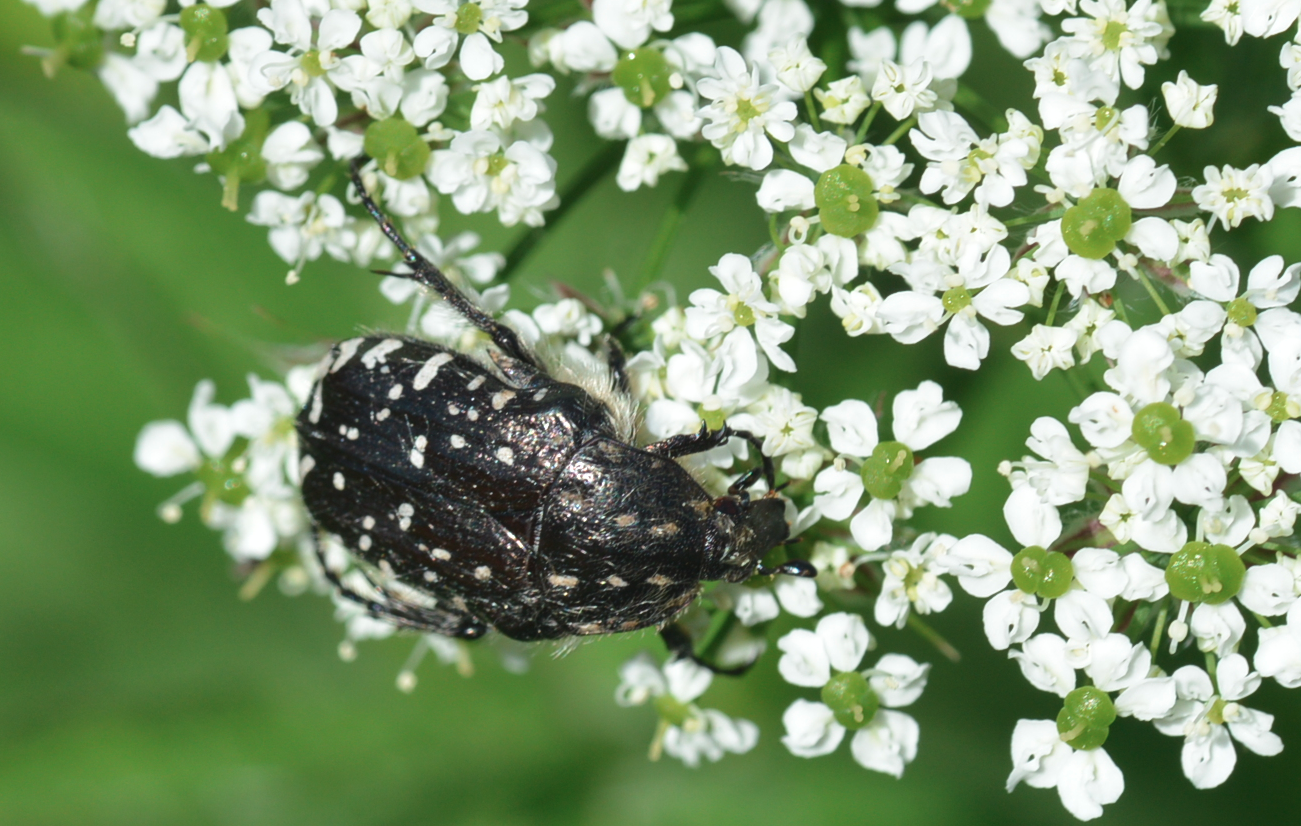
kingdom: Animalia
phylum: Arthropoda
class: Insecta
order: Coleoptera
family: Scarabaeidae
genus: Oxythyrea
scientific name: Oxythyrea funesta
